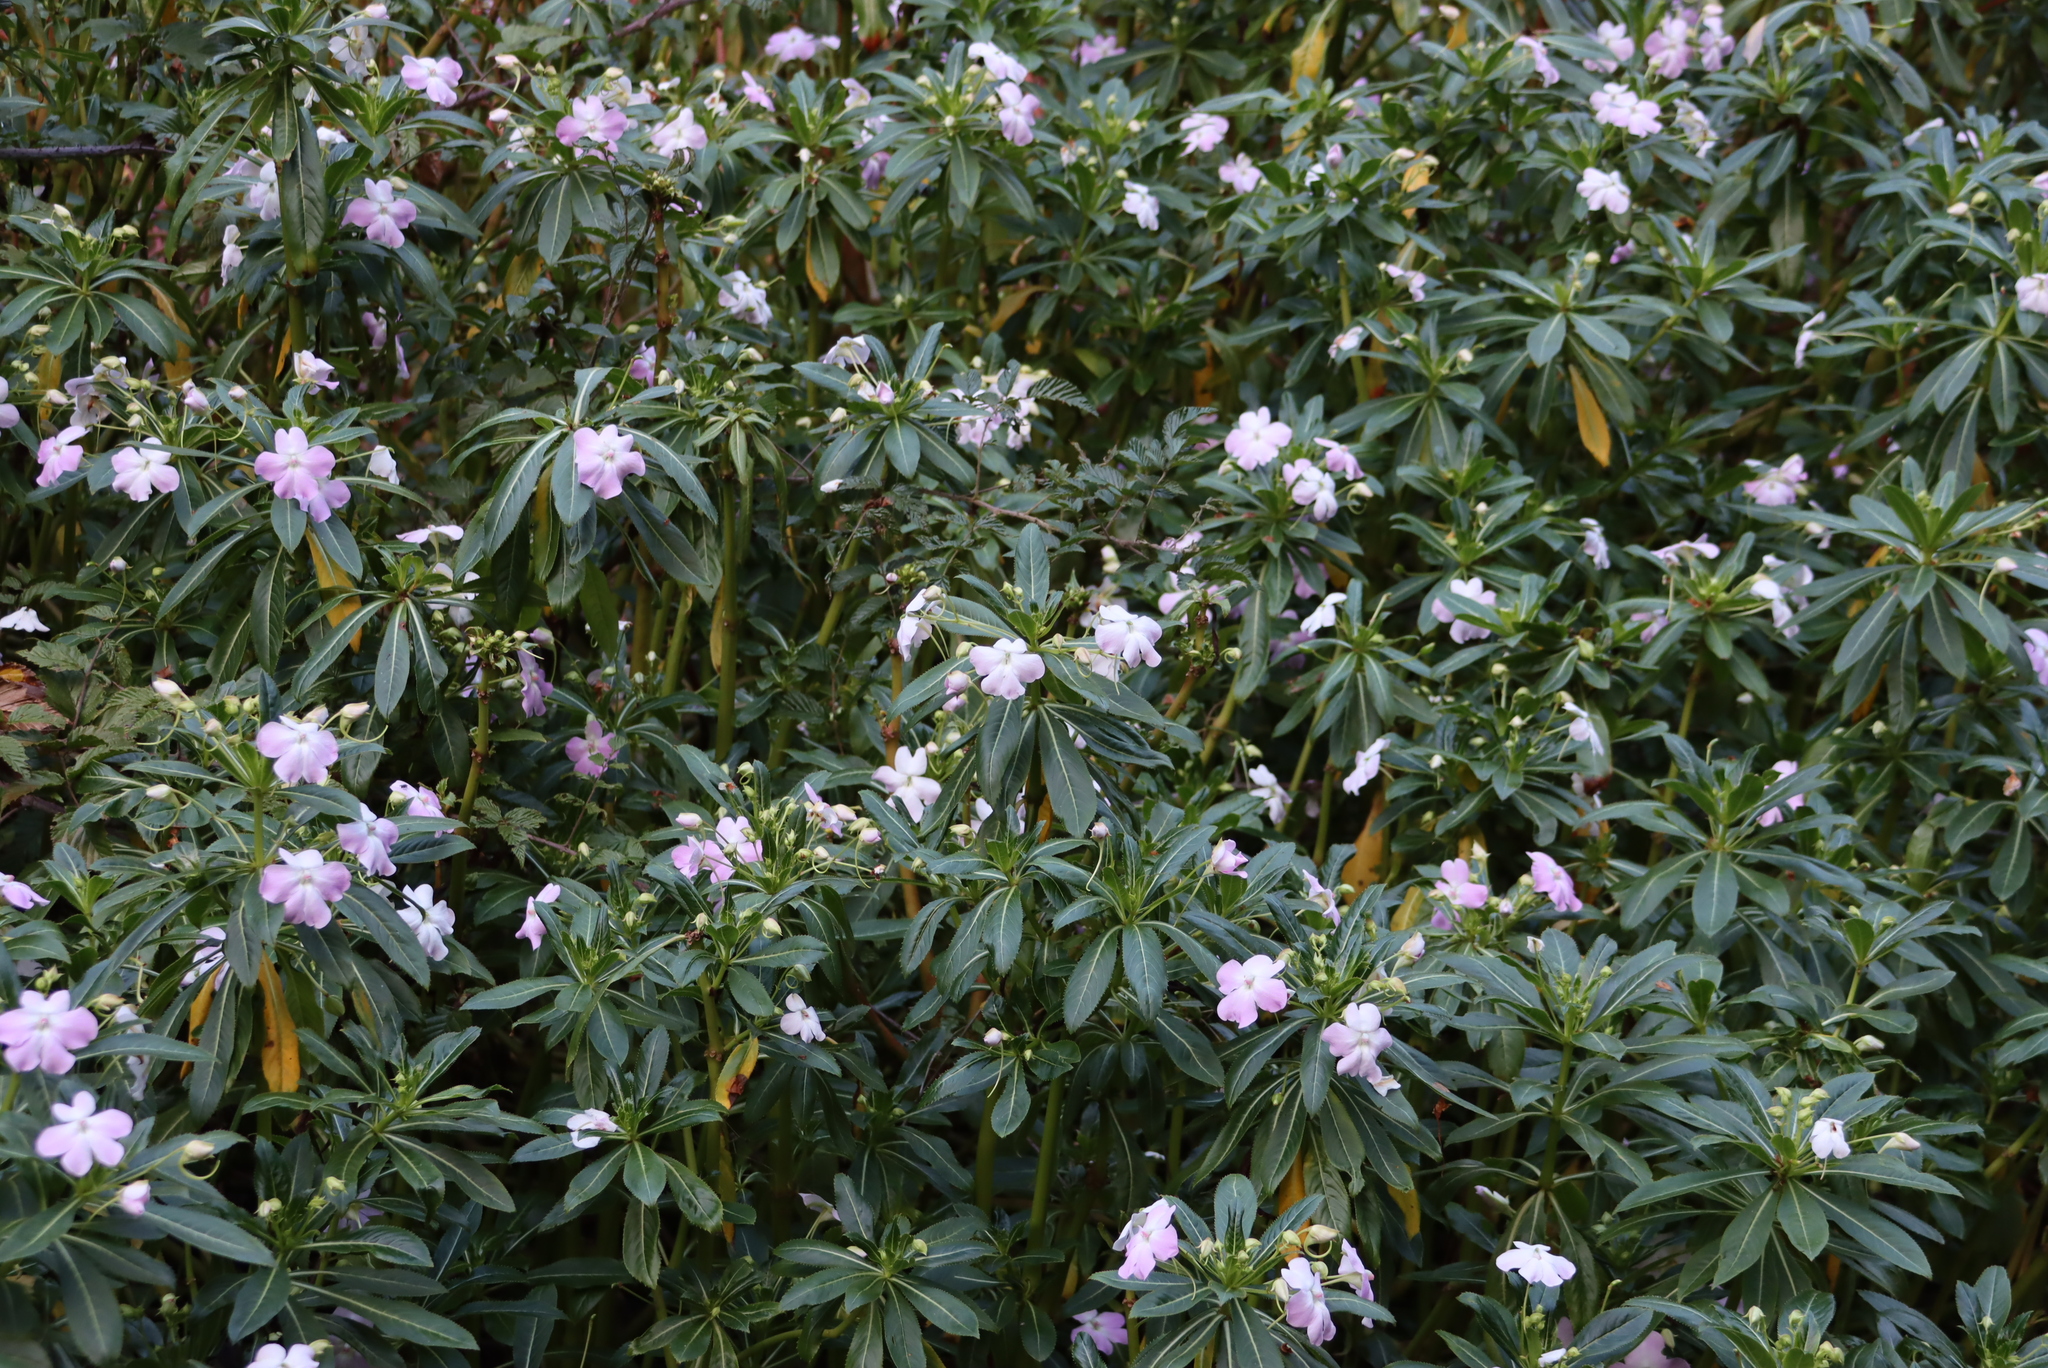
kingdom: Plantae
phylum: Tracheophyta
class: Magnoliopsida
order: Ericales
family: Balsaminaceae
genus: Impatiens
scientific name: Impatiens sodenii
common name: Oliver's touch-me-not
